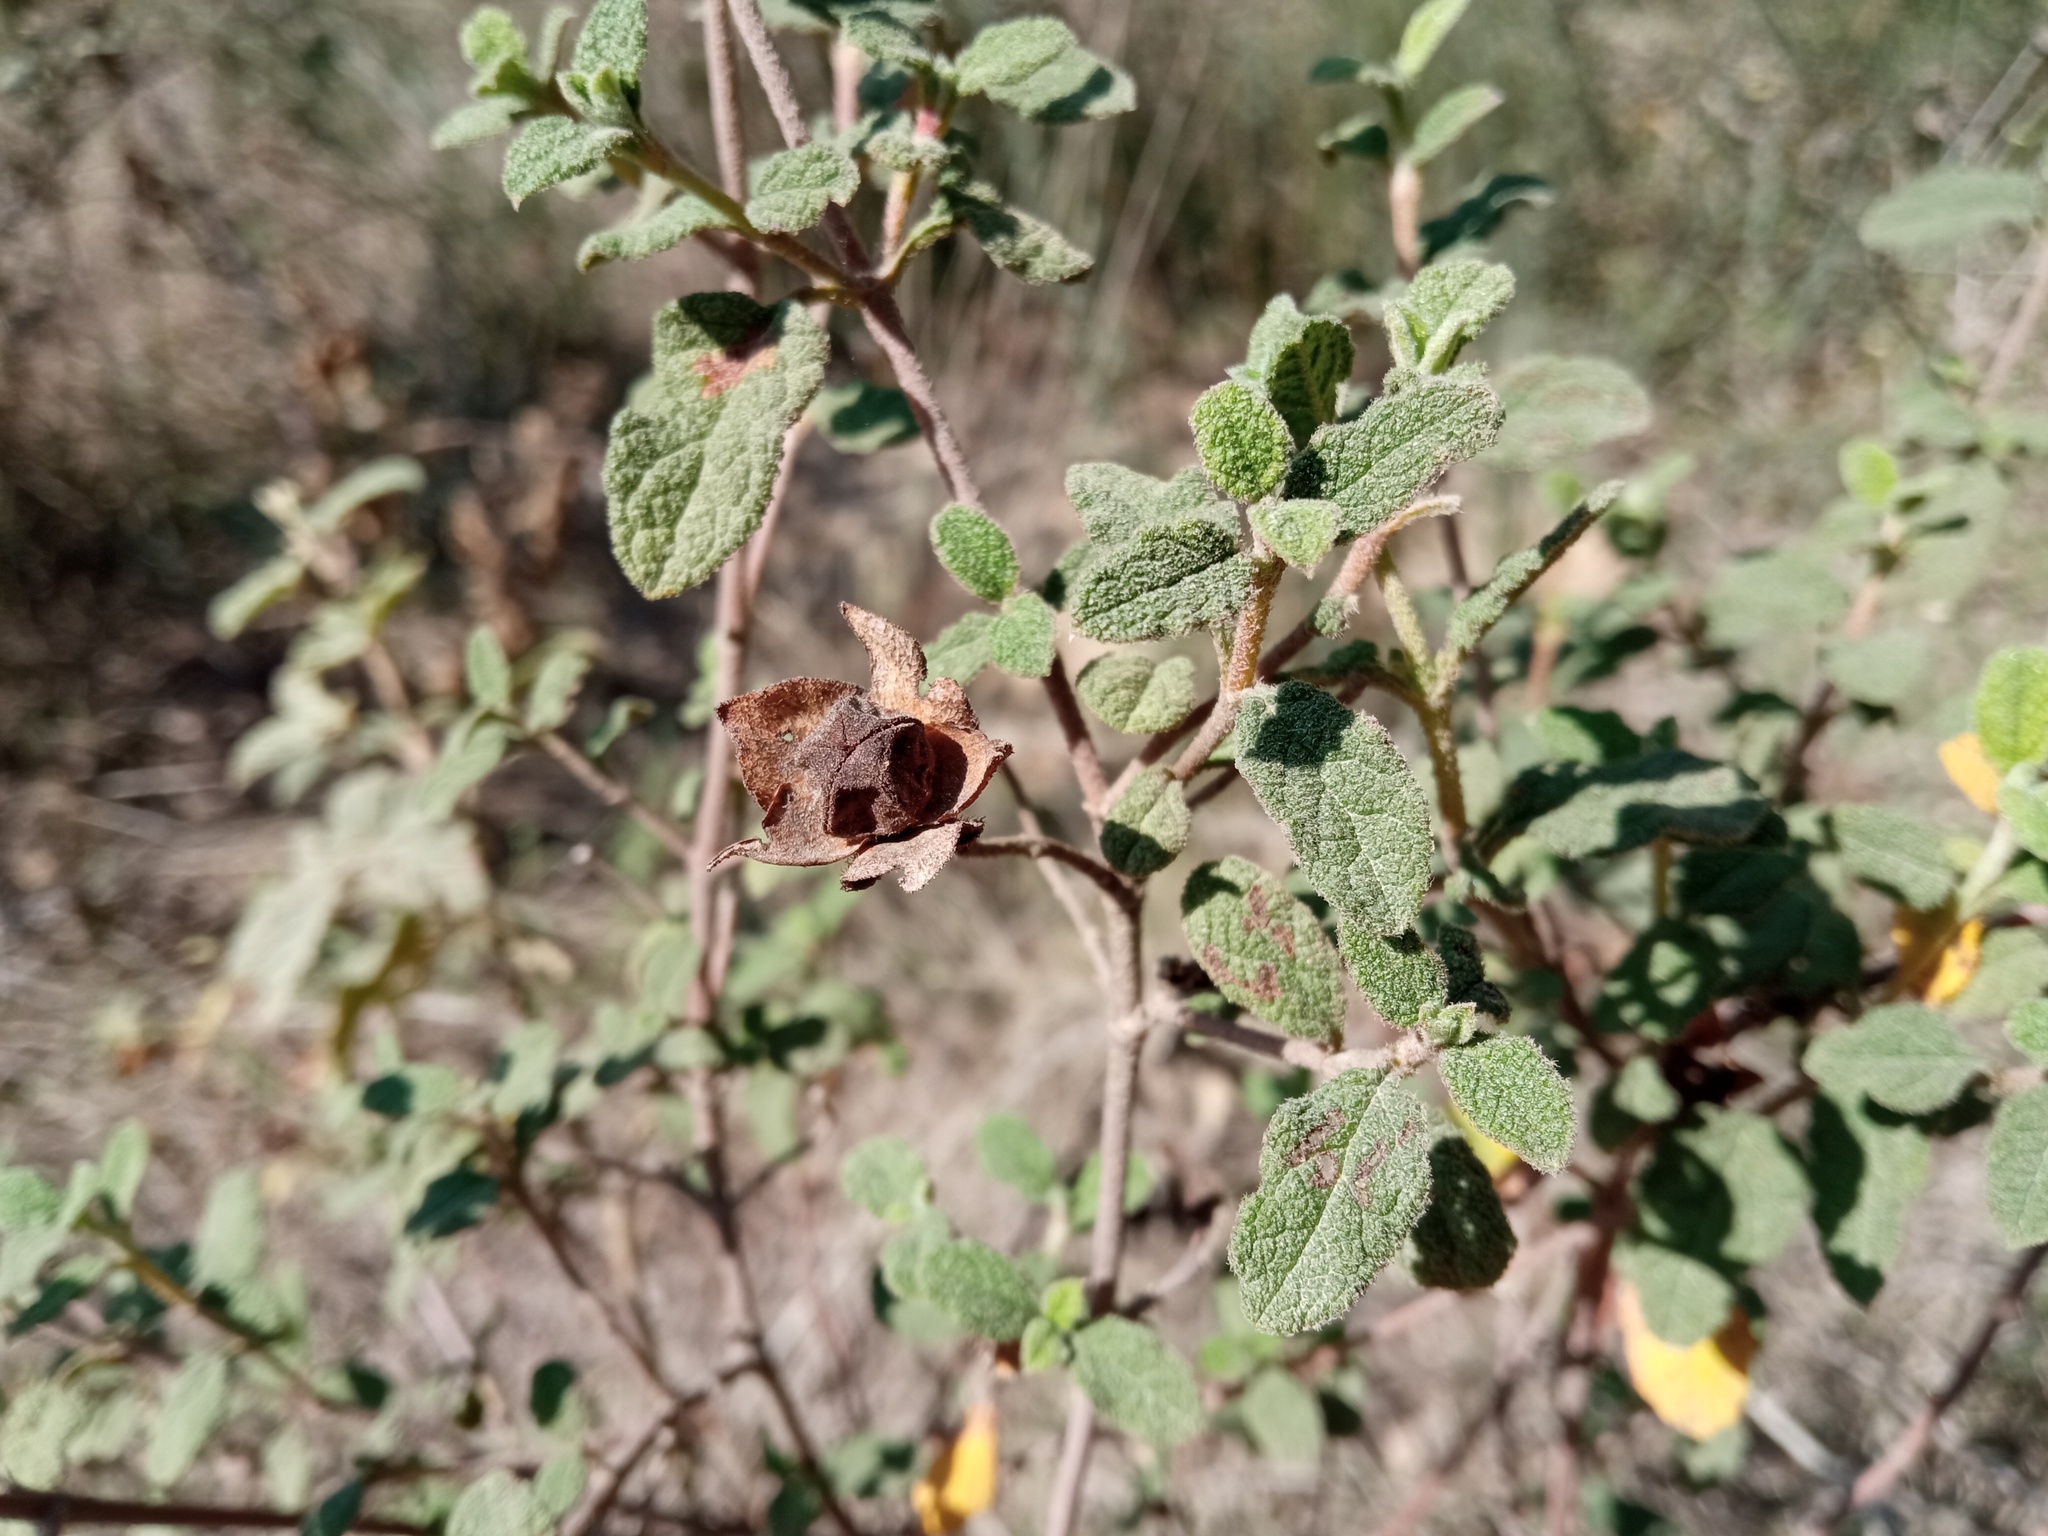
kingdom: Plantae
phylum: Tracheophyta
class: Magnoliopsida
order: Malvales
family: Cistaceae
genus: Cistus
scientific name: Cistus salviifolius
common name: Salvia cistus
